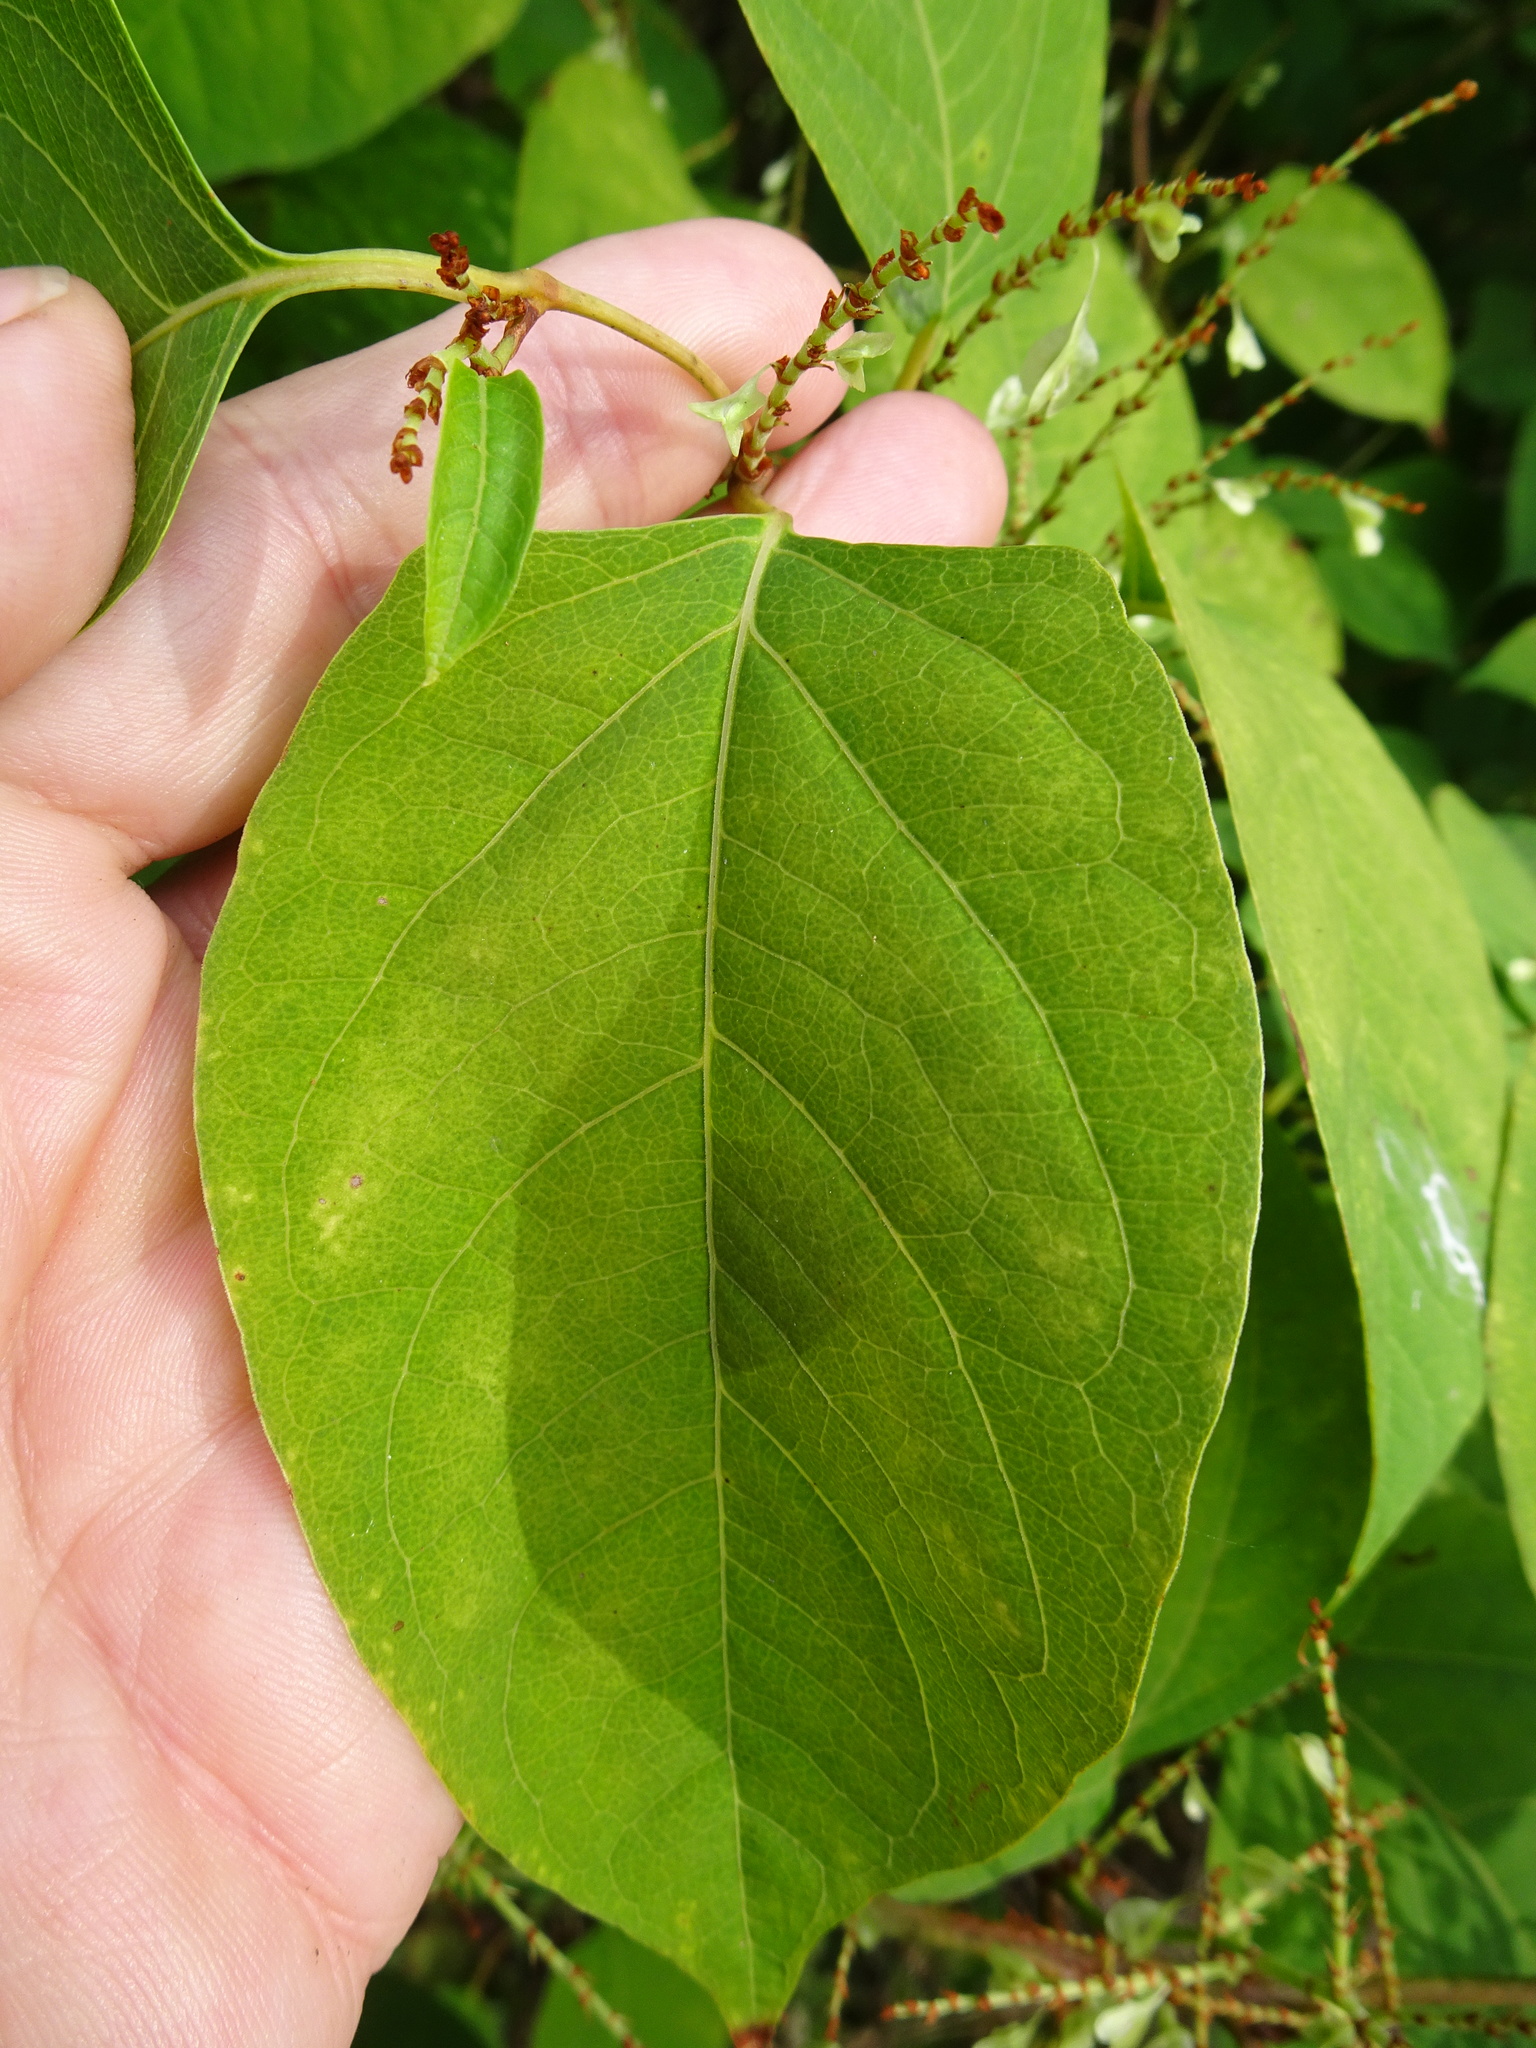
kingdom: Plantae
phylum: Tracheophyta
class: Magnoliopsida
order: Caryophyllales
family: Polygonaceae
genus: Reynoutria
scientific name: Reynoutria japonica
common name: Japanese knotweed
